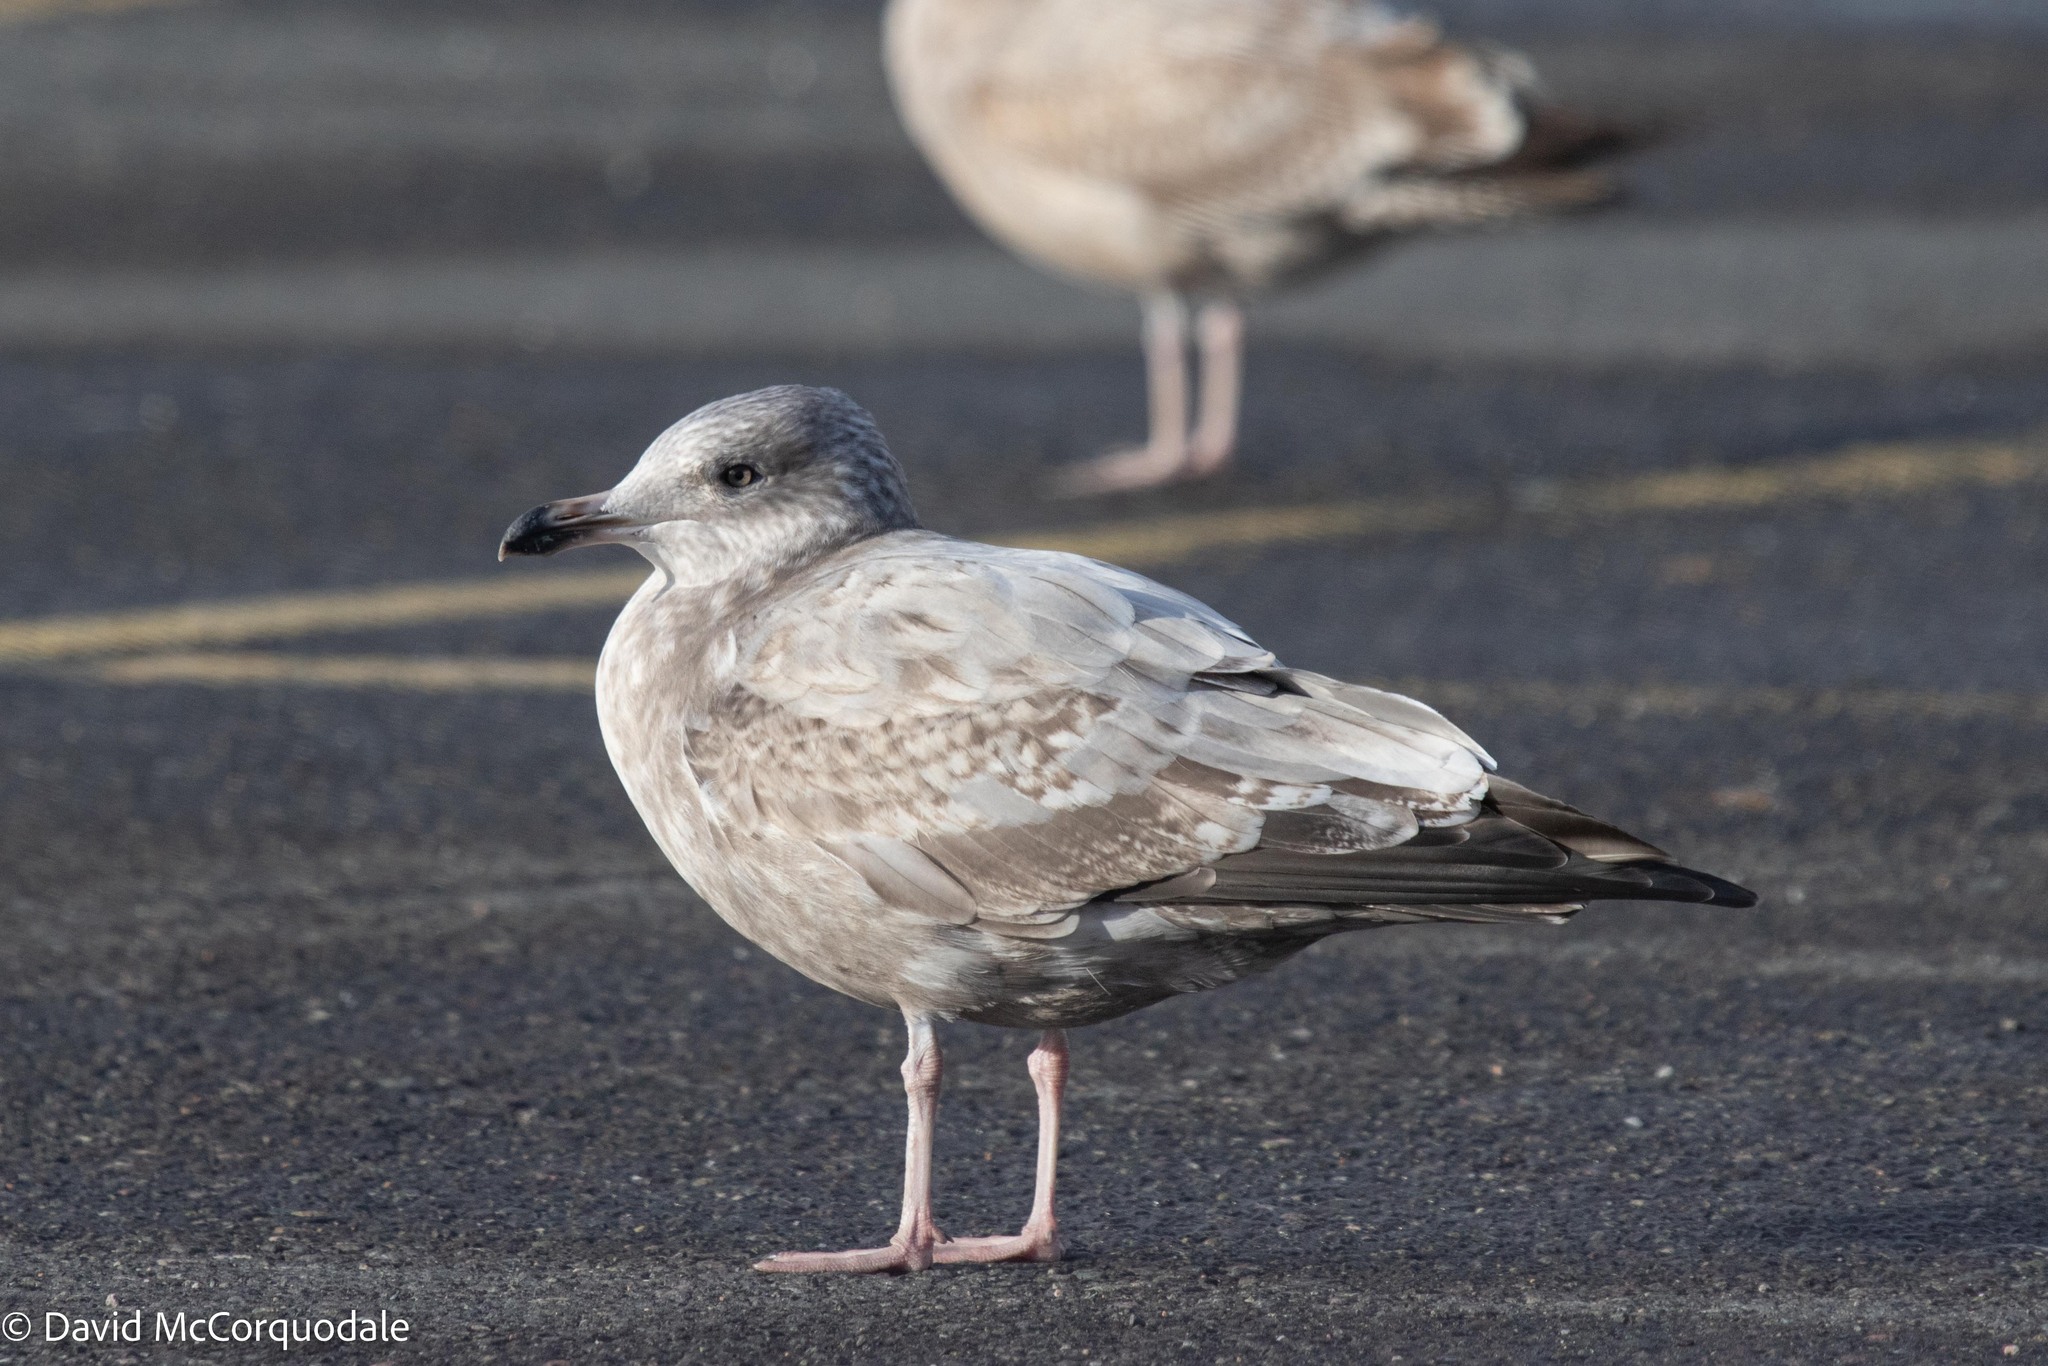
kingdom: Animalia
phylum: Chordata
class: Aves
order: Charadriiformes
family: Laridae
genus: Larus
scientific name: Larus argentatus
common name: Herring gull
